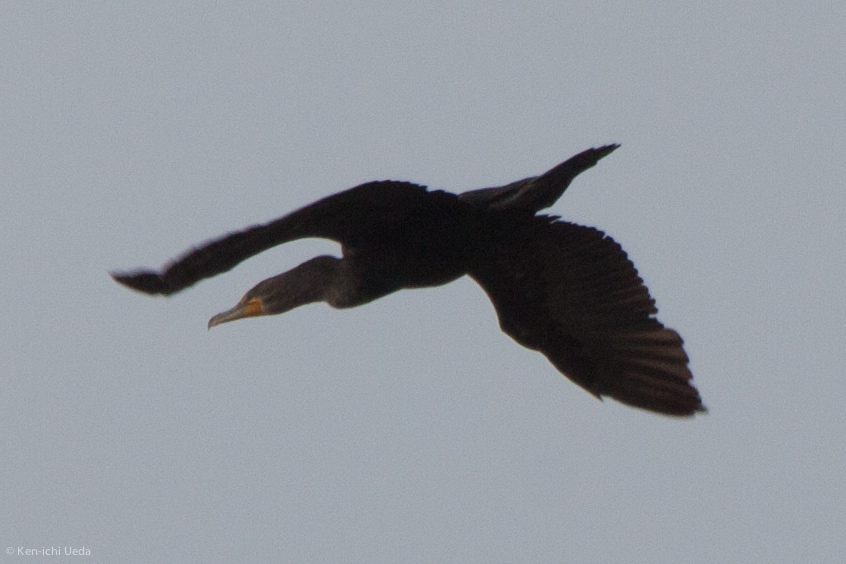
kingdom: Animalia
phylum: Chordata
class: Aves
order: Suliformes
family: Phalacrocoracidae
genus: Phalacrocorax
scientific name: Phalacrocorax auritus
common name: Double-crested cormorant
